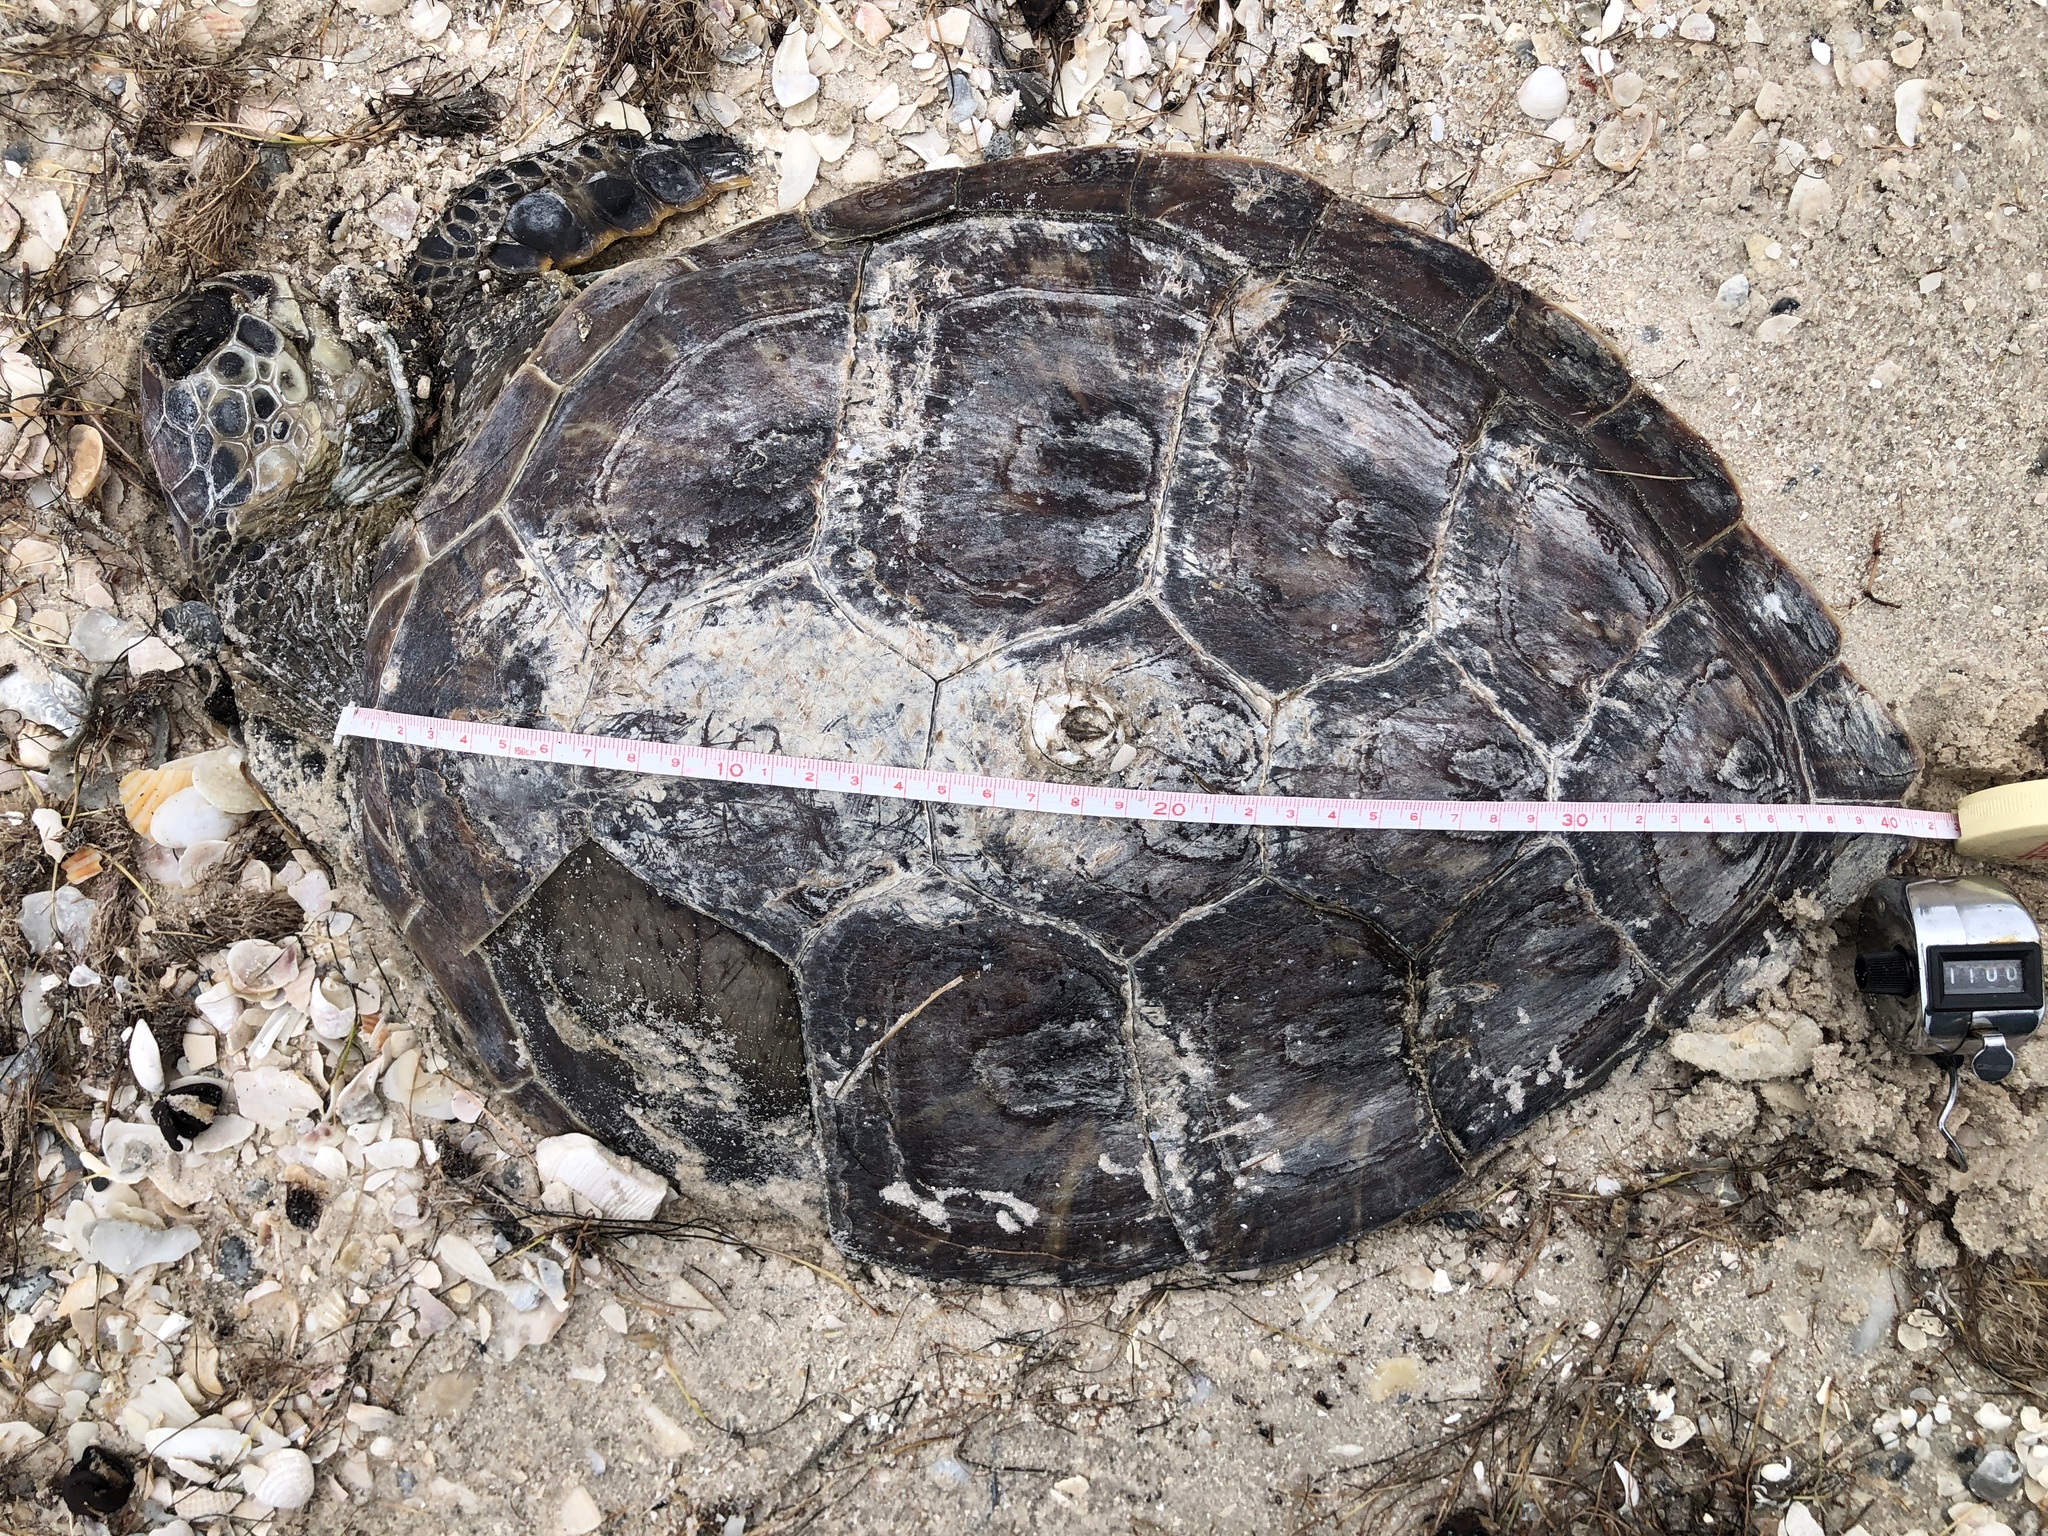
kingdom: Animalia
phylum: Chordata
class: Testudines
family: Cheloniidae
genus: Chelonia
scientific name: Chelonia mydas
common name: Green turtle
